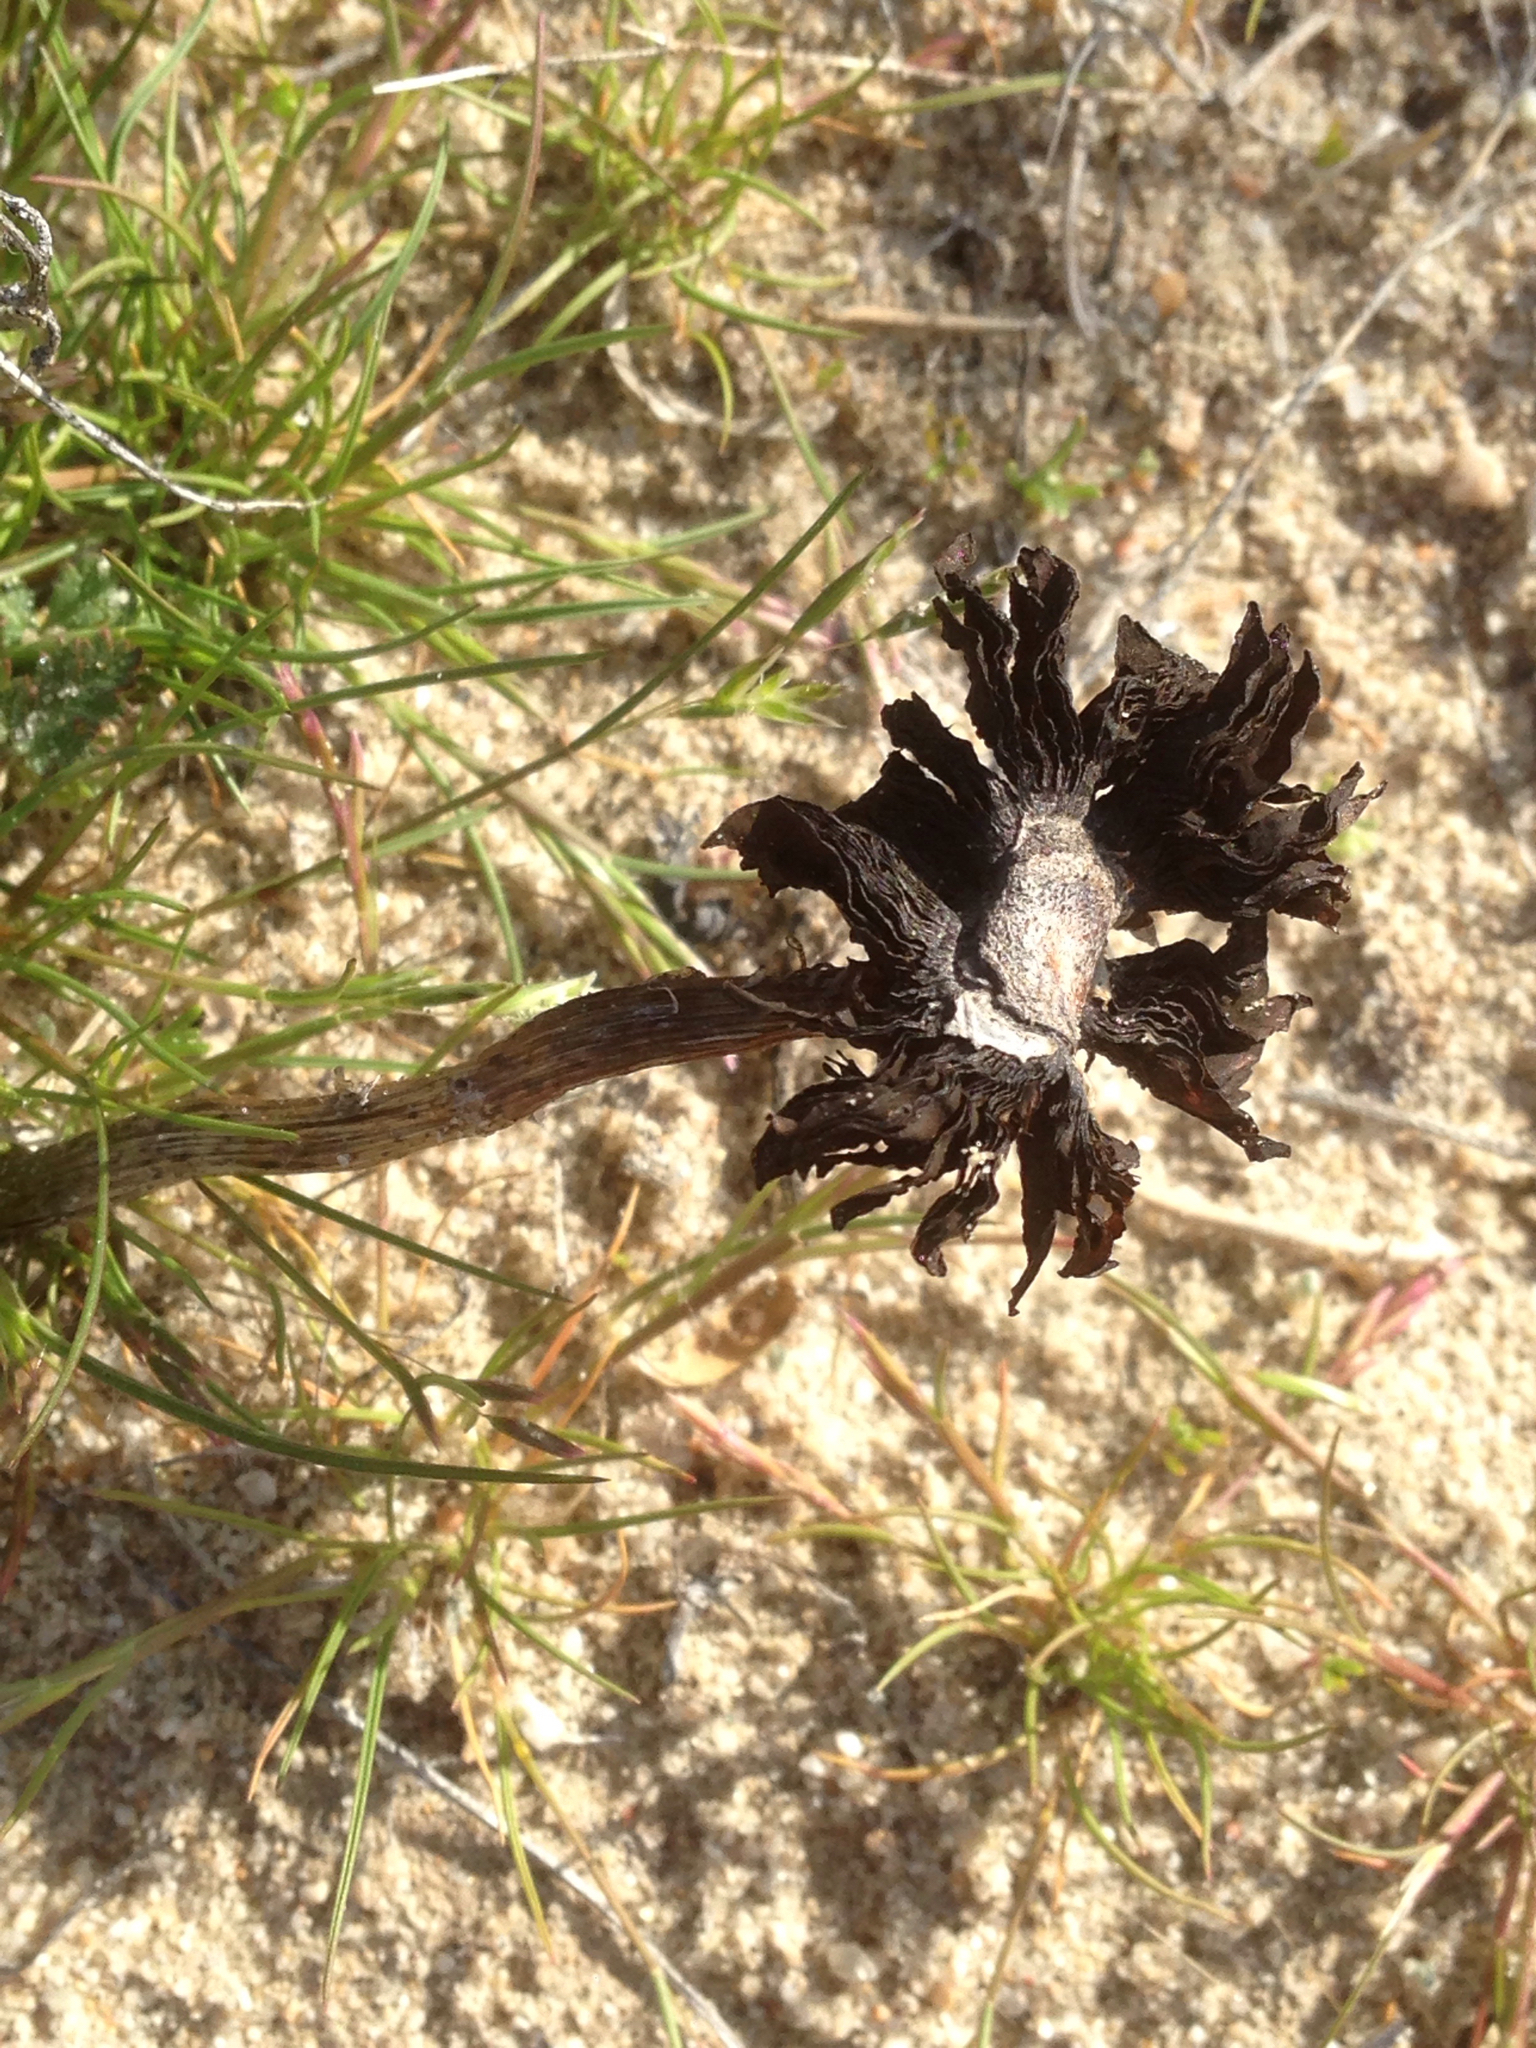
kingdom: Fungi
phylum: Basidiomycota
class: Agaricomycetes
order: Agaricales
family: Agaricaceae
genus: Montagnea
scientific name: Montagnea arenaria
